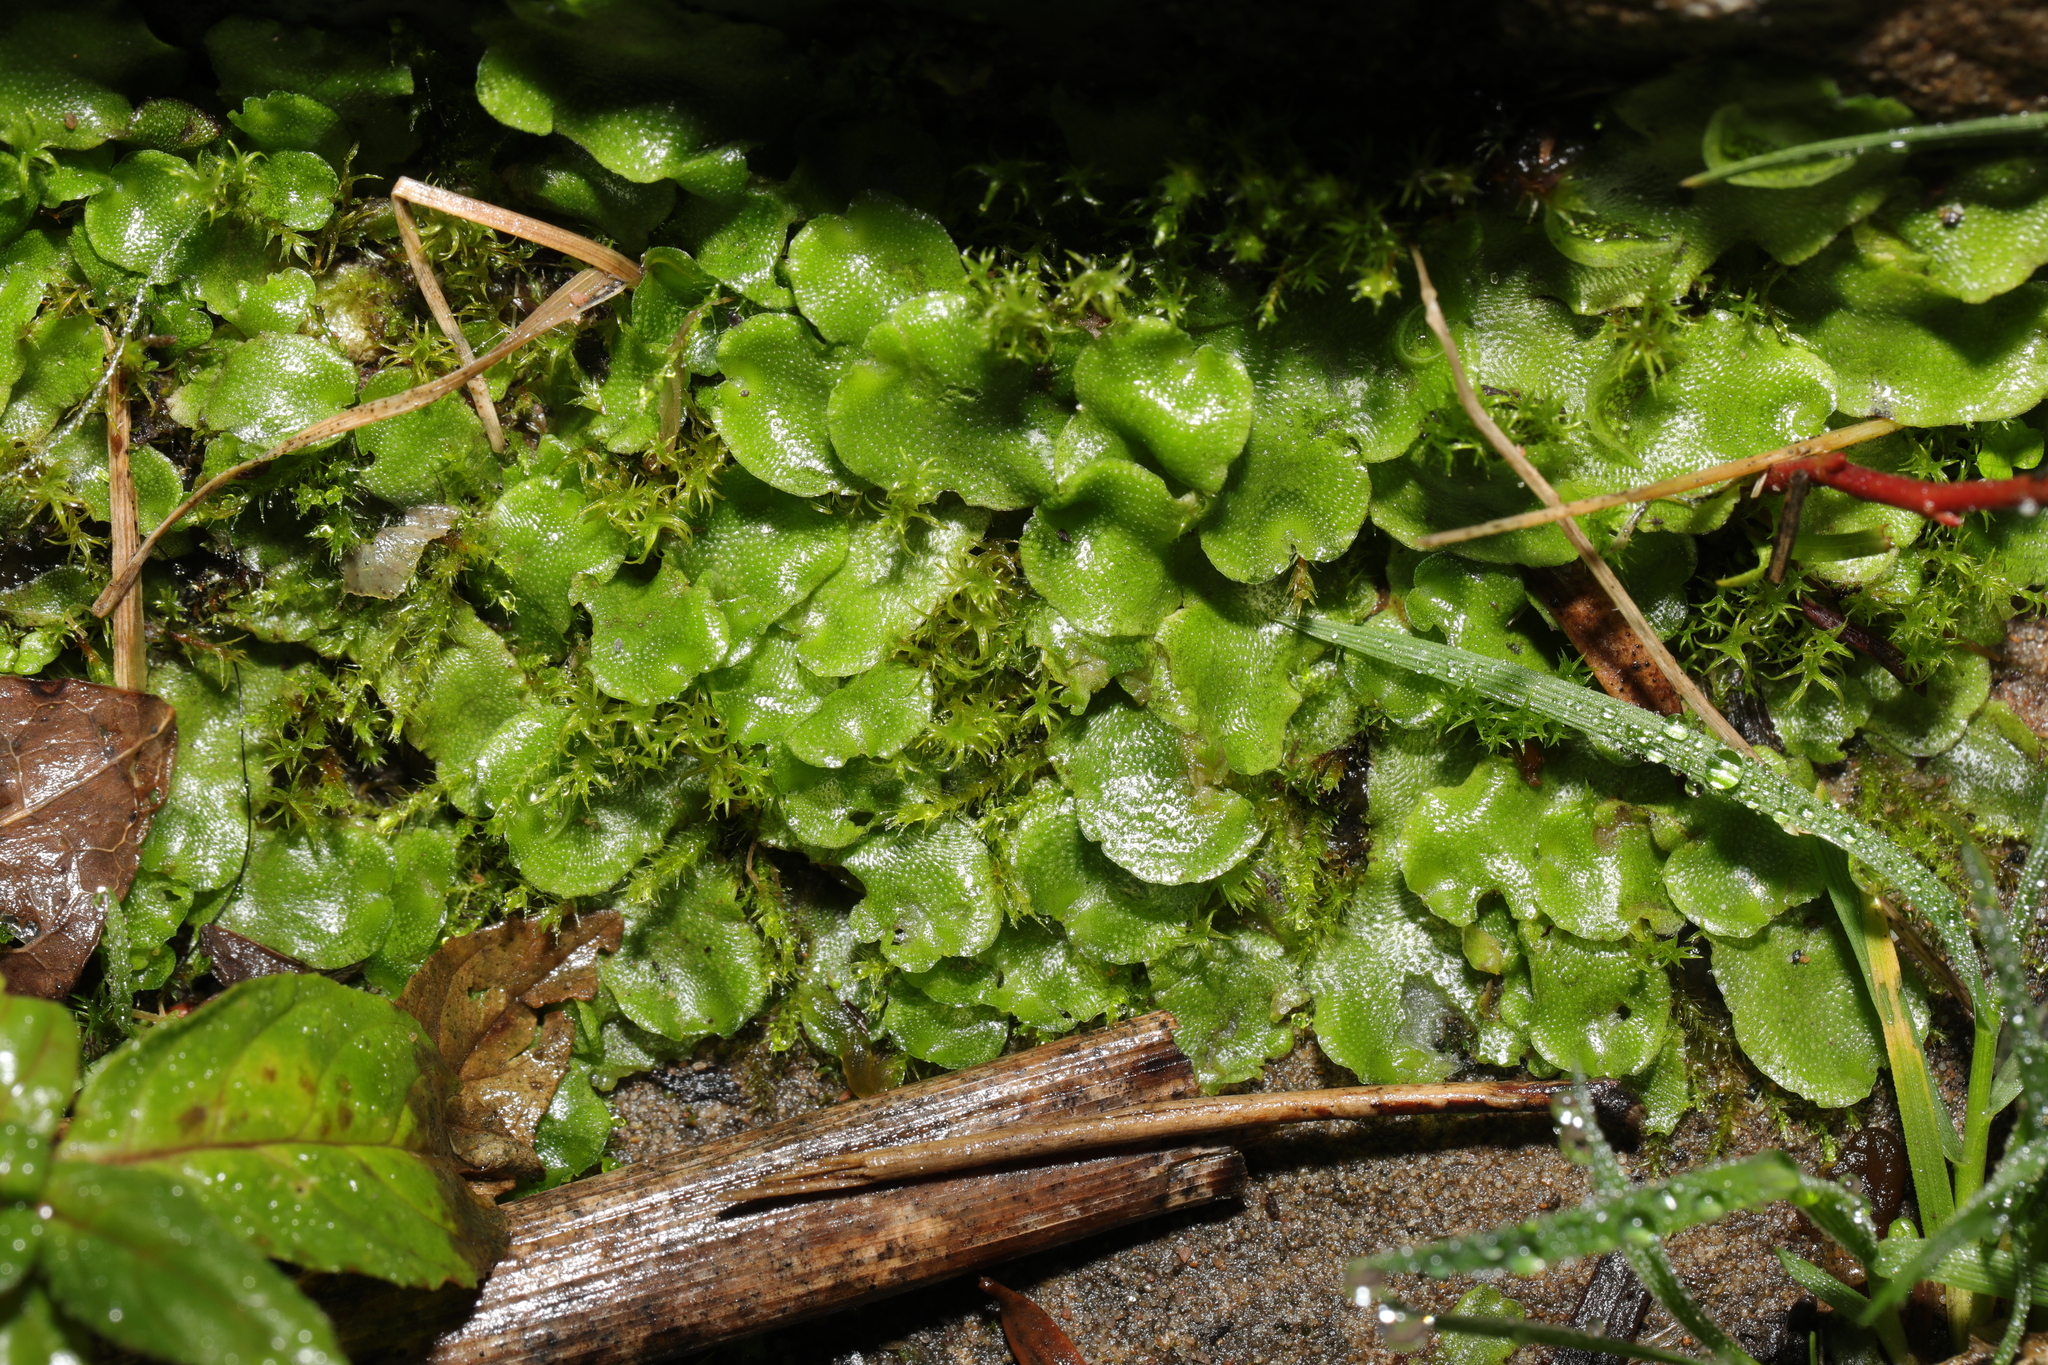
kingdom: Plantae
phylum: Marchantiophyta
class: Marchantiopsida
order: Lunulariales
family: Lunulariaceae
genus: Lunularia
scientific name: Lunularia cruciata
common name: Crescent-cup liverwort
